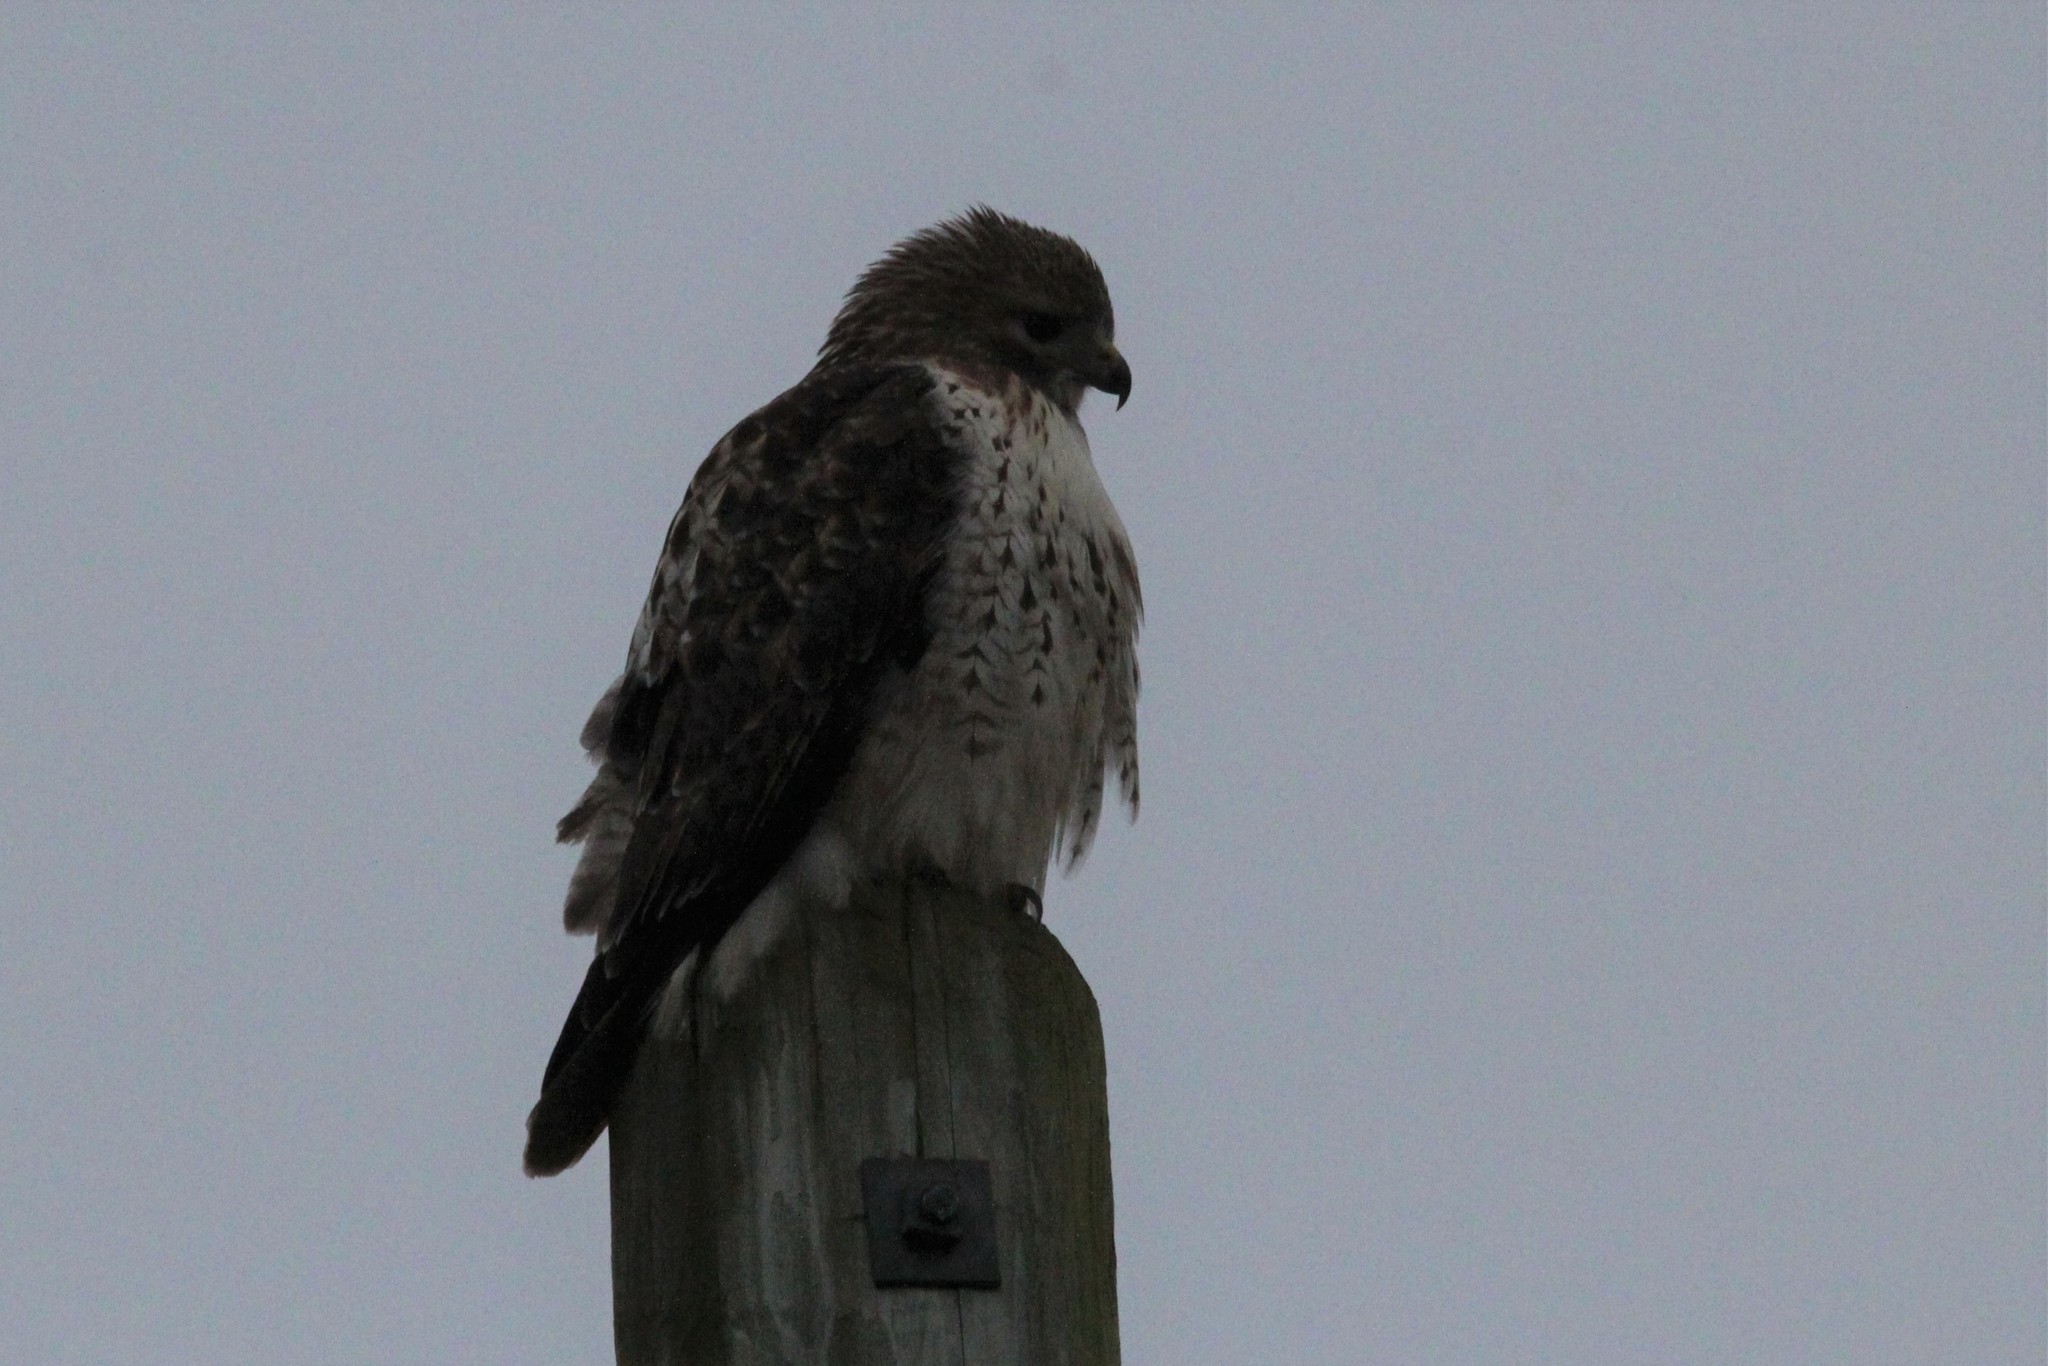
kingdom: Animalia
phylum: Chordata
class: Aves
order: Accipitriformes
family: Accipitridae
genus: Buteo
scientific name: Buteo jamaicensis
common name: Red-tailed hawk
